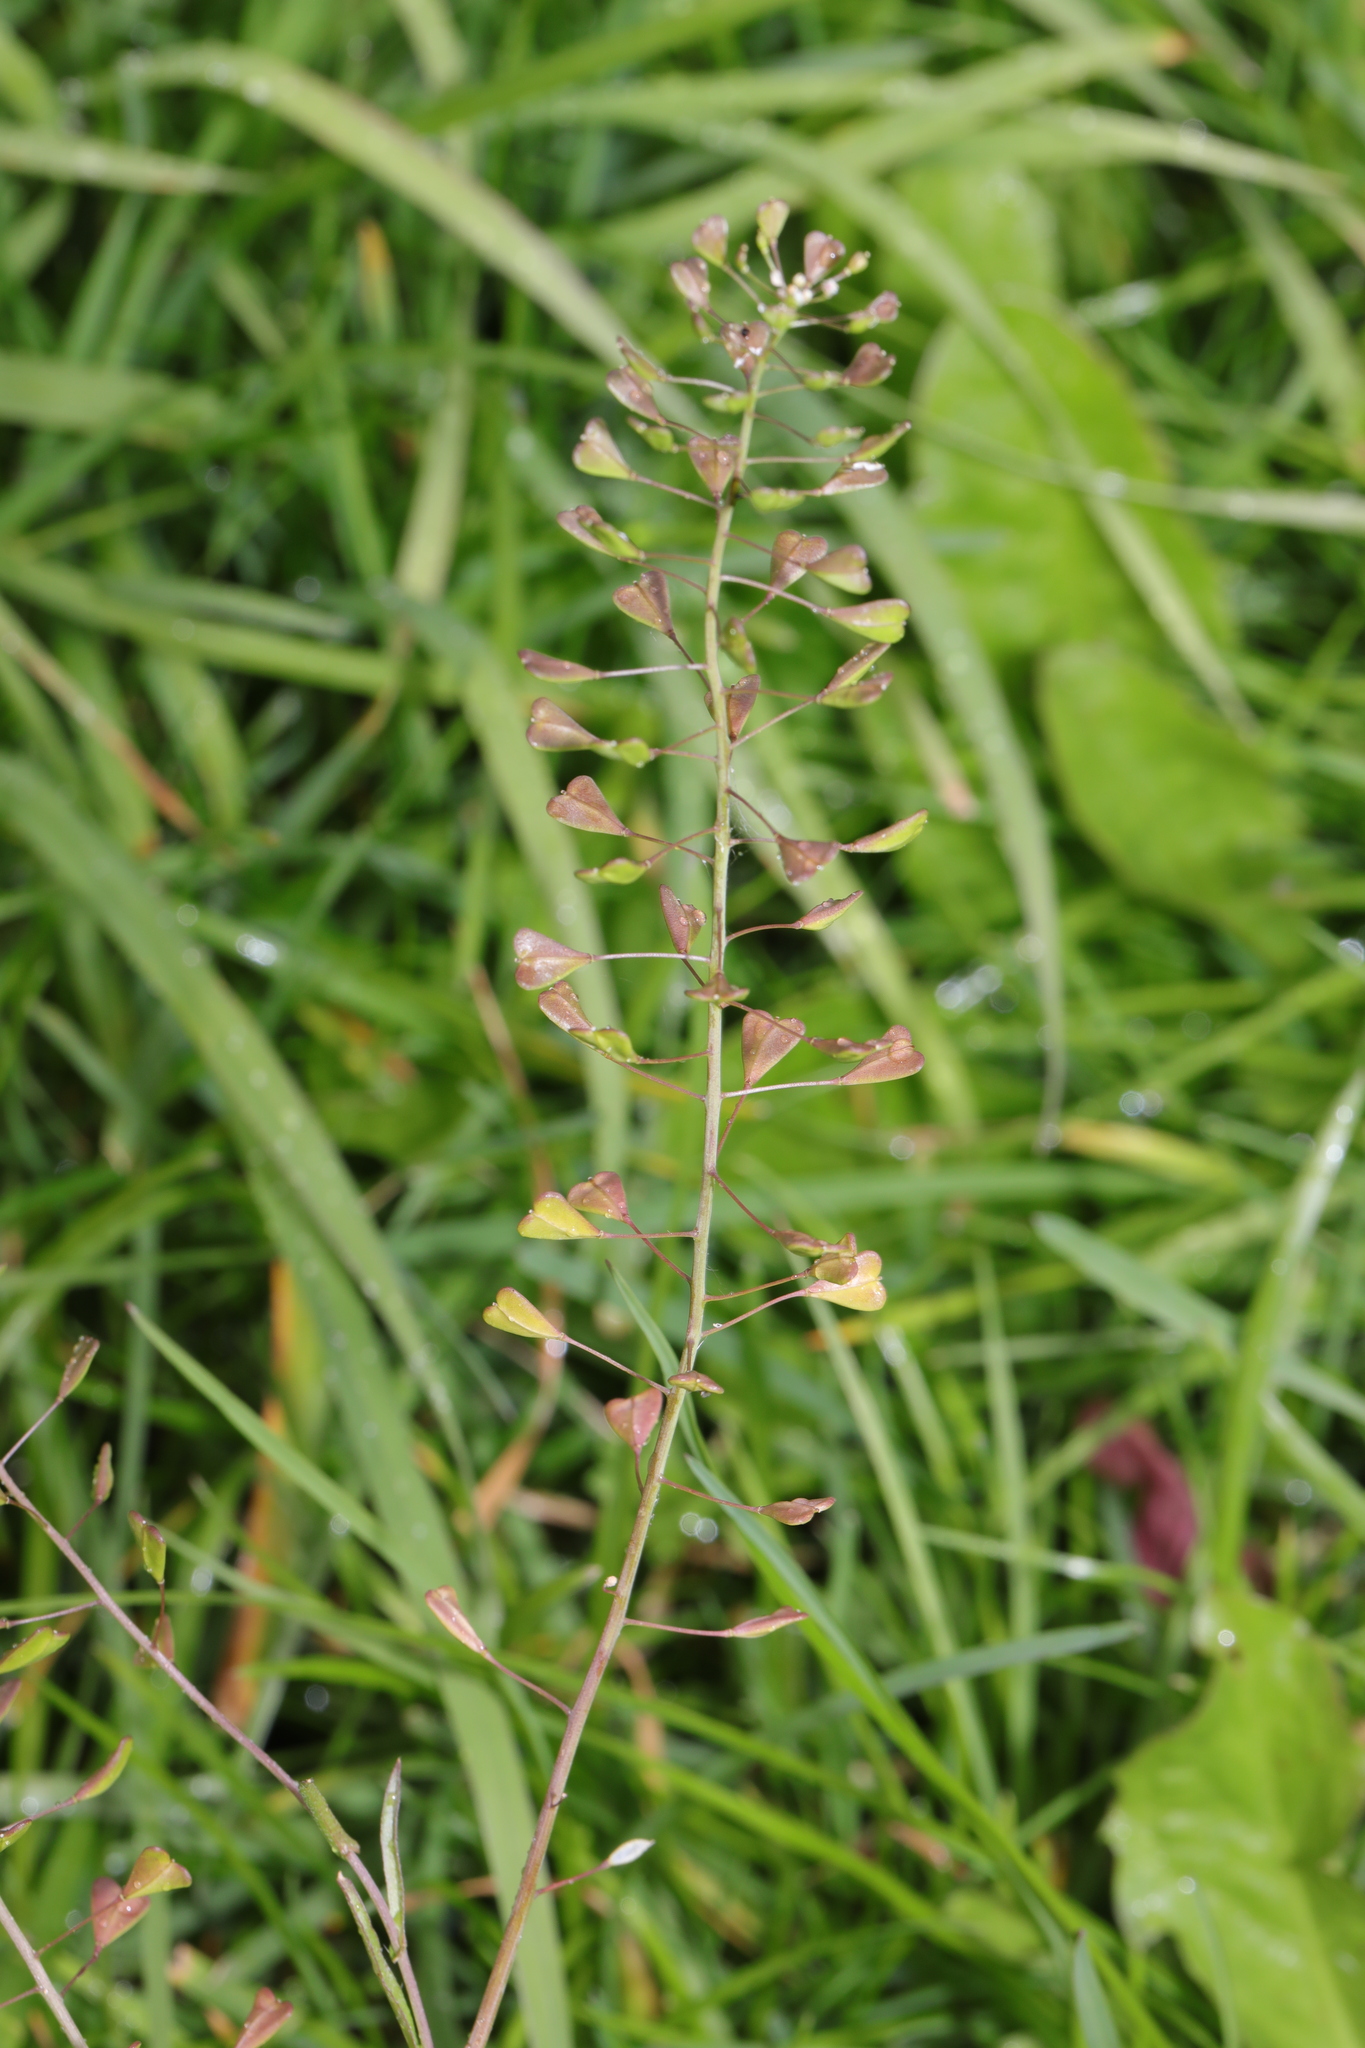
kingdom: Plantae
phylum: Tracheophyta
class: Magnoliopsida
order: Brassicales
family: Brassicaceae
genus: Capsella
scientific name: Capsella bursa-pastoris
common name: Shepherd's purse
